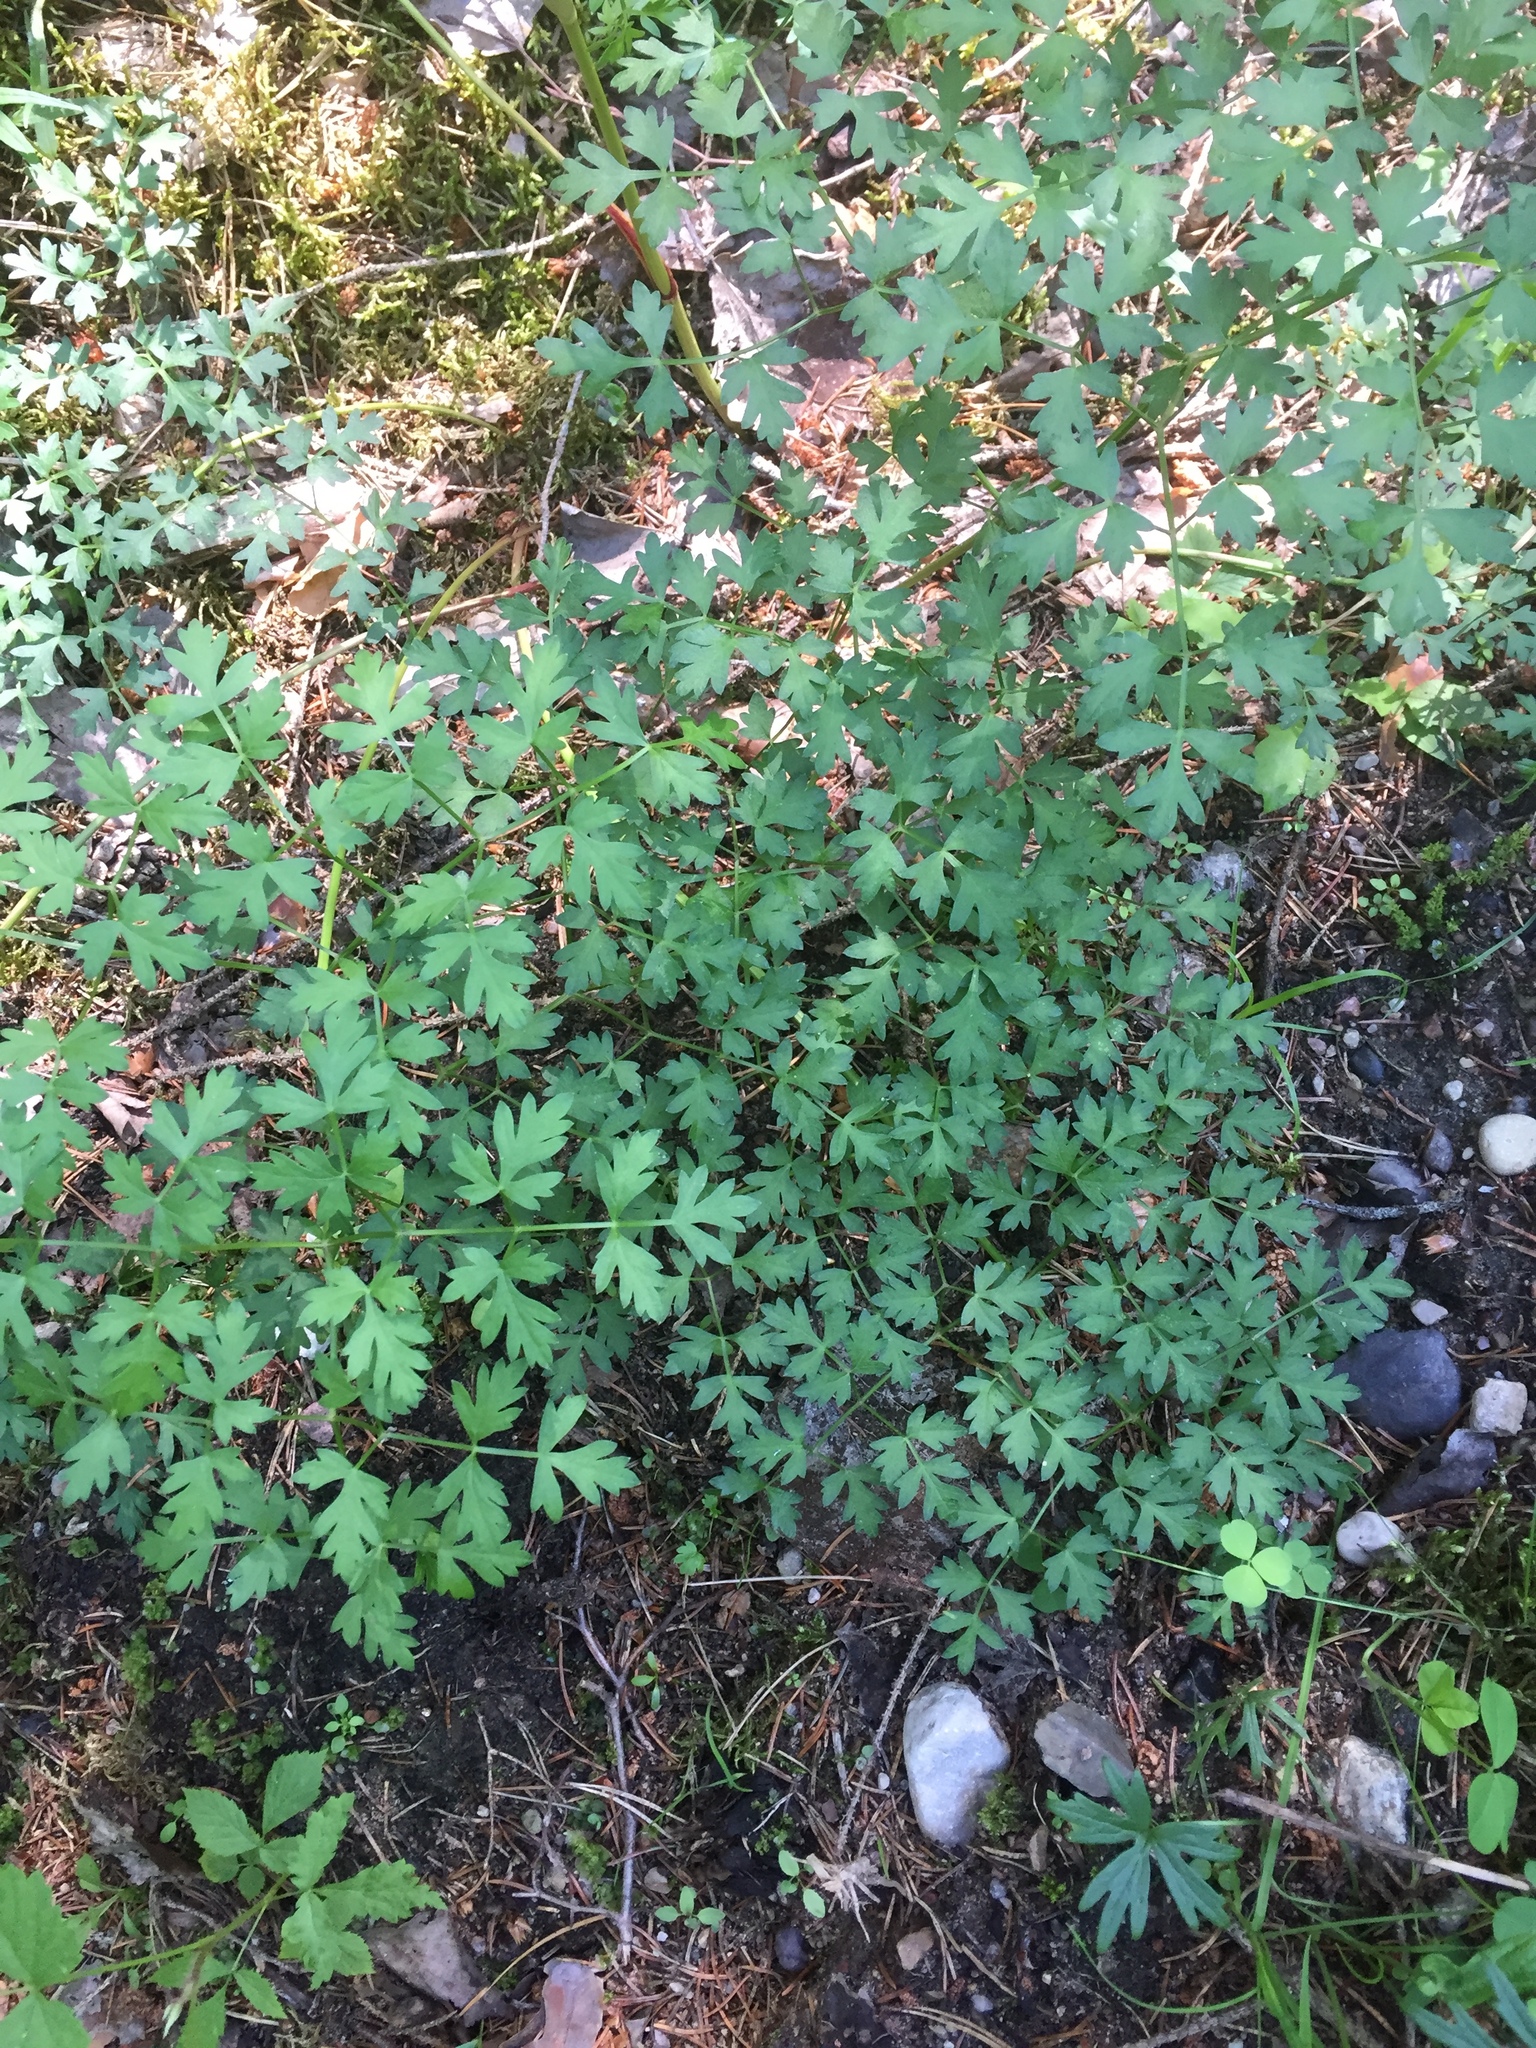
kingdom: Plantae
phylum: Tracheophyta
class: Magnoliopsida
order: Apiales
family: Apiaceae
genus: Oreoselinum
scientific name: Oreoselinum nigrum
